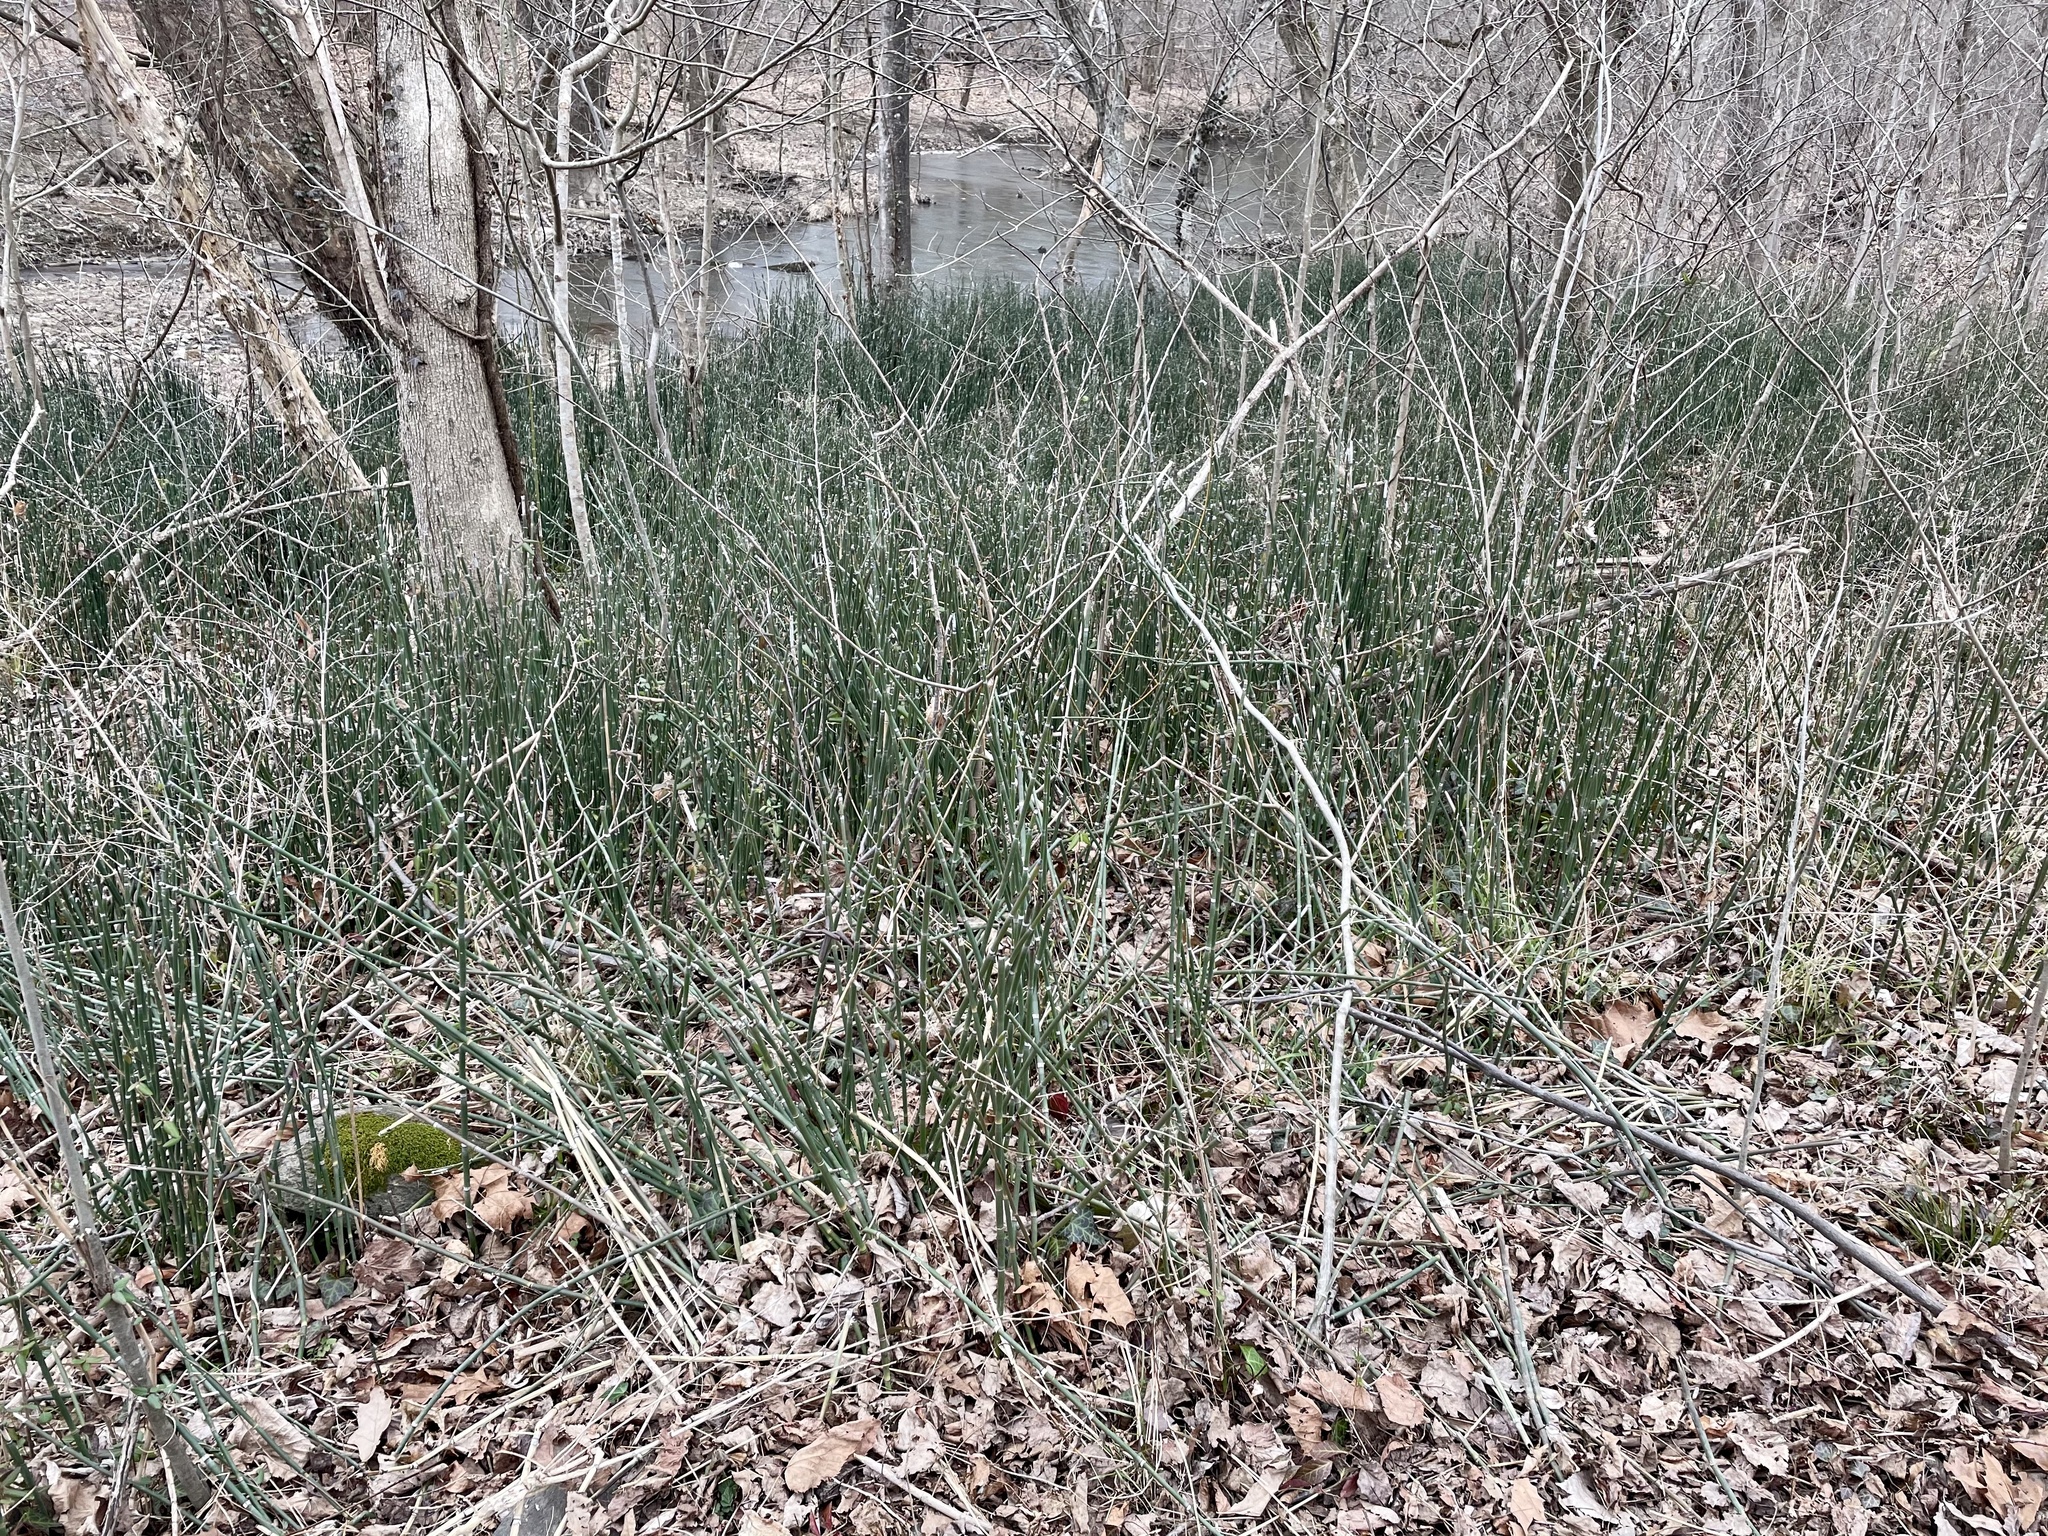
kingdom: Plantae
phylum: Tracheophyta
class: Polypodiopsida
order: Equisetales
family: Equisetaceae
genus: Equisetum
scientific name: Equisetum praealtum
